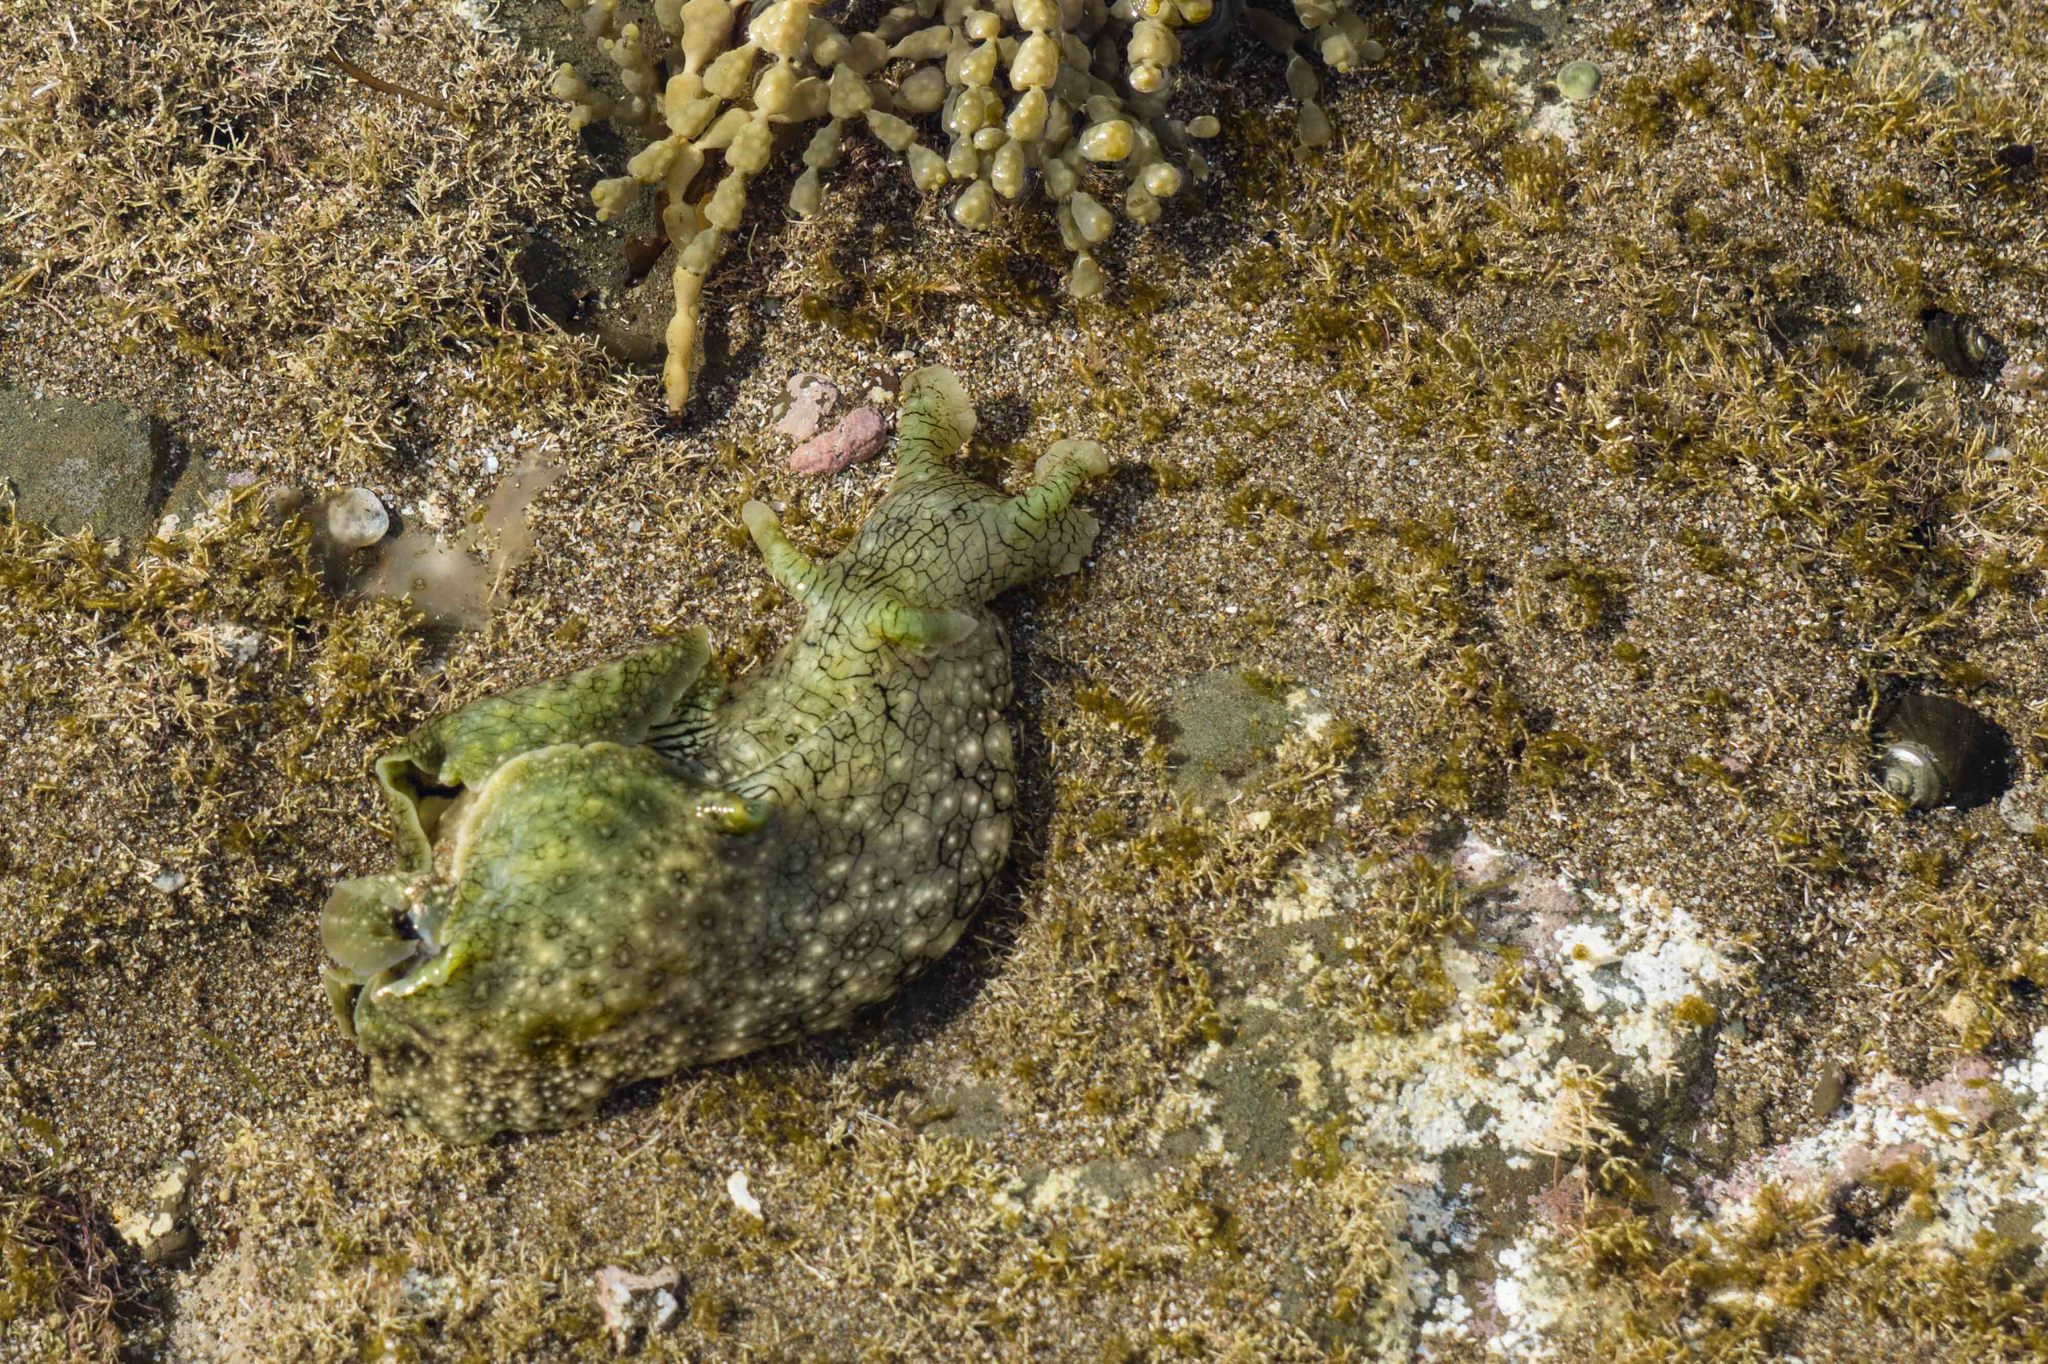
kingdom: Animalia
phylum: Mollusca
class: Gastropoda
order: Aplysiida
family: Aplysiidae
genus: Aplysia
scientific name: Aplysia argus
